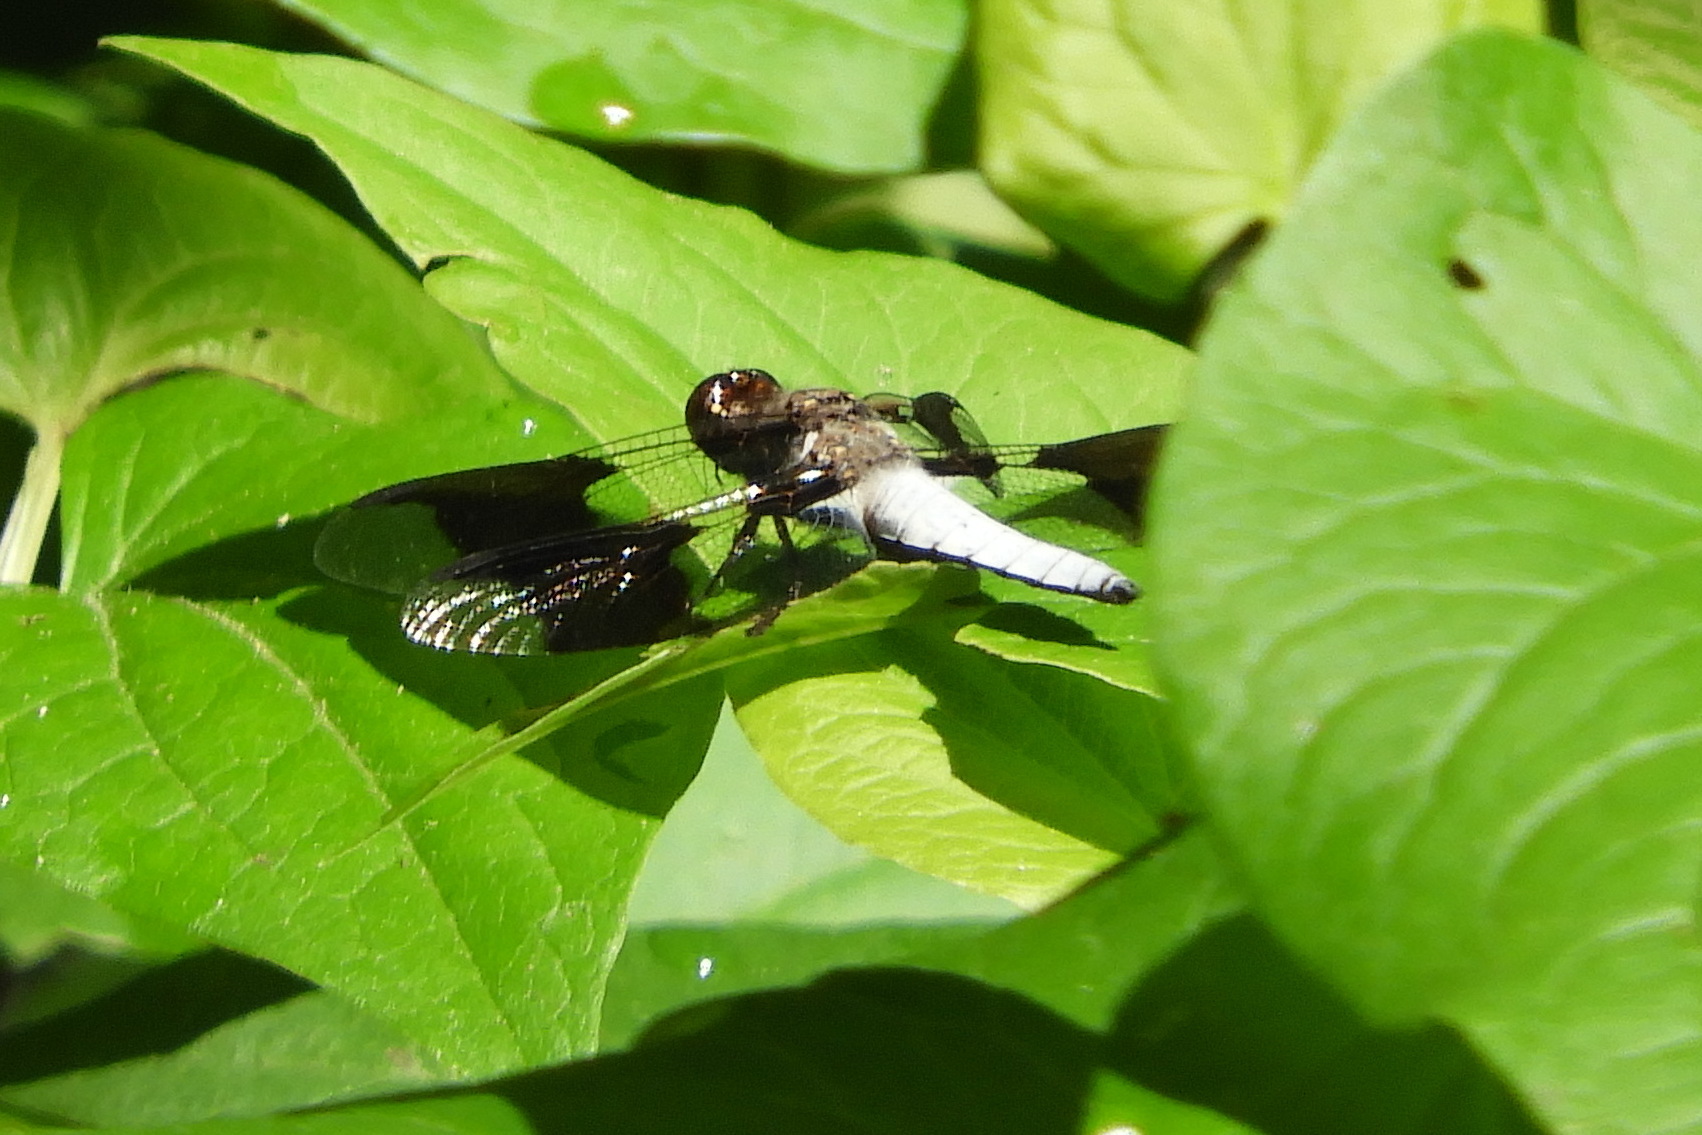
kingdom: Animalia
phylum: Arthropoda
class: Insecta
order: Odonata
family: Libellulidae
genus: Plathemis
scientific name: Plathemis lydia
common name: Common whitetail
